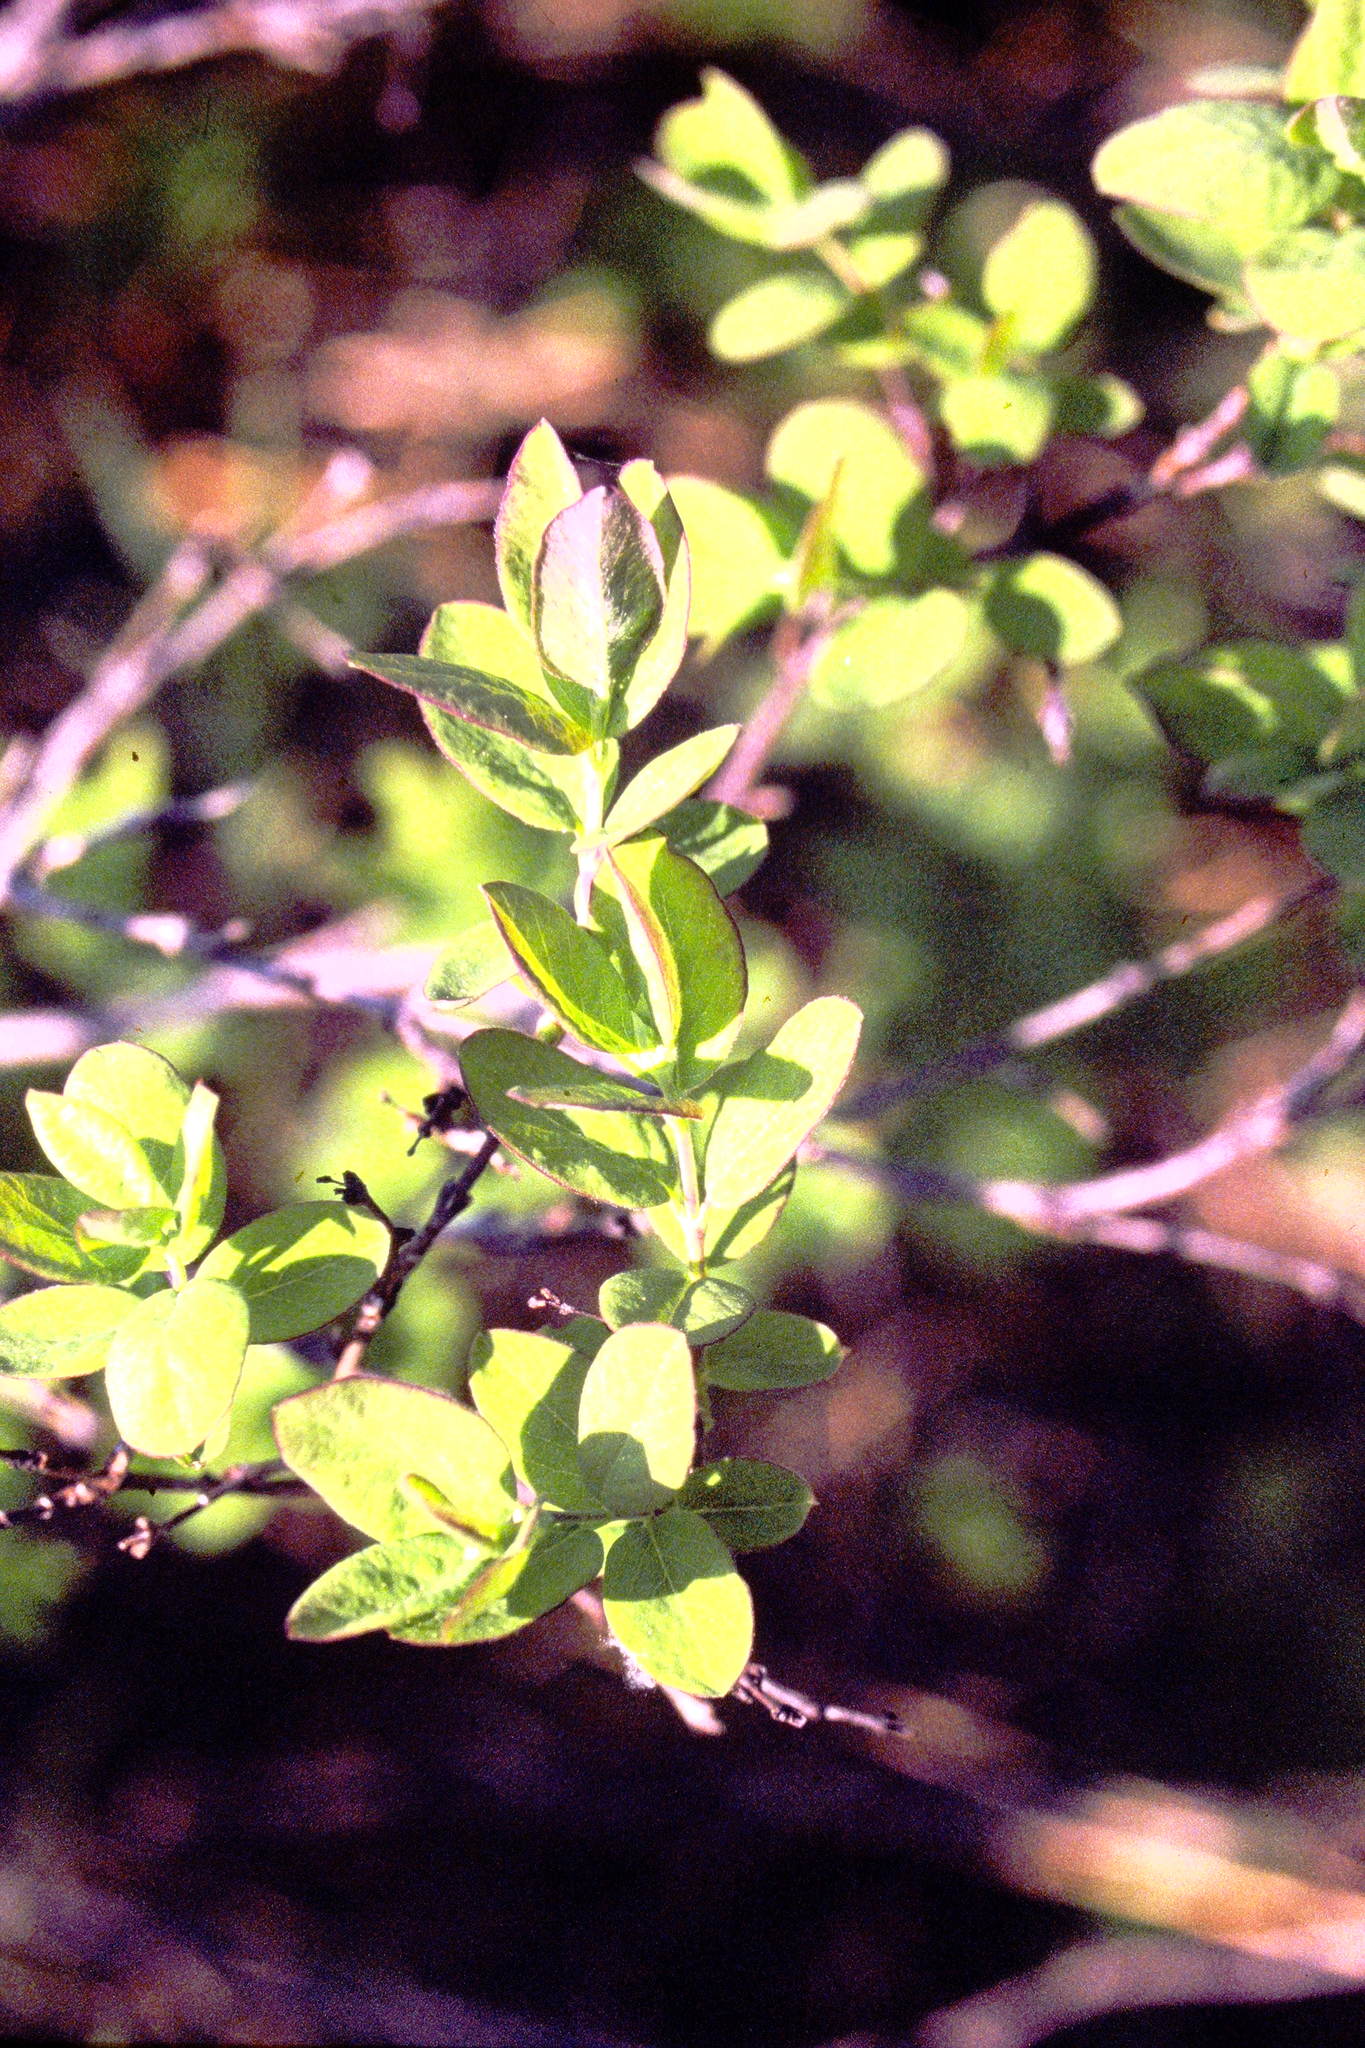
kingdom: Plantae
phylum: Tracheophyta
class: Magnoliopsida
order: Dipsacales
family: Caprifoliaceae
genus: Symphoricarpos
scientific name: Symphoricarpos albus
